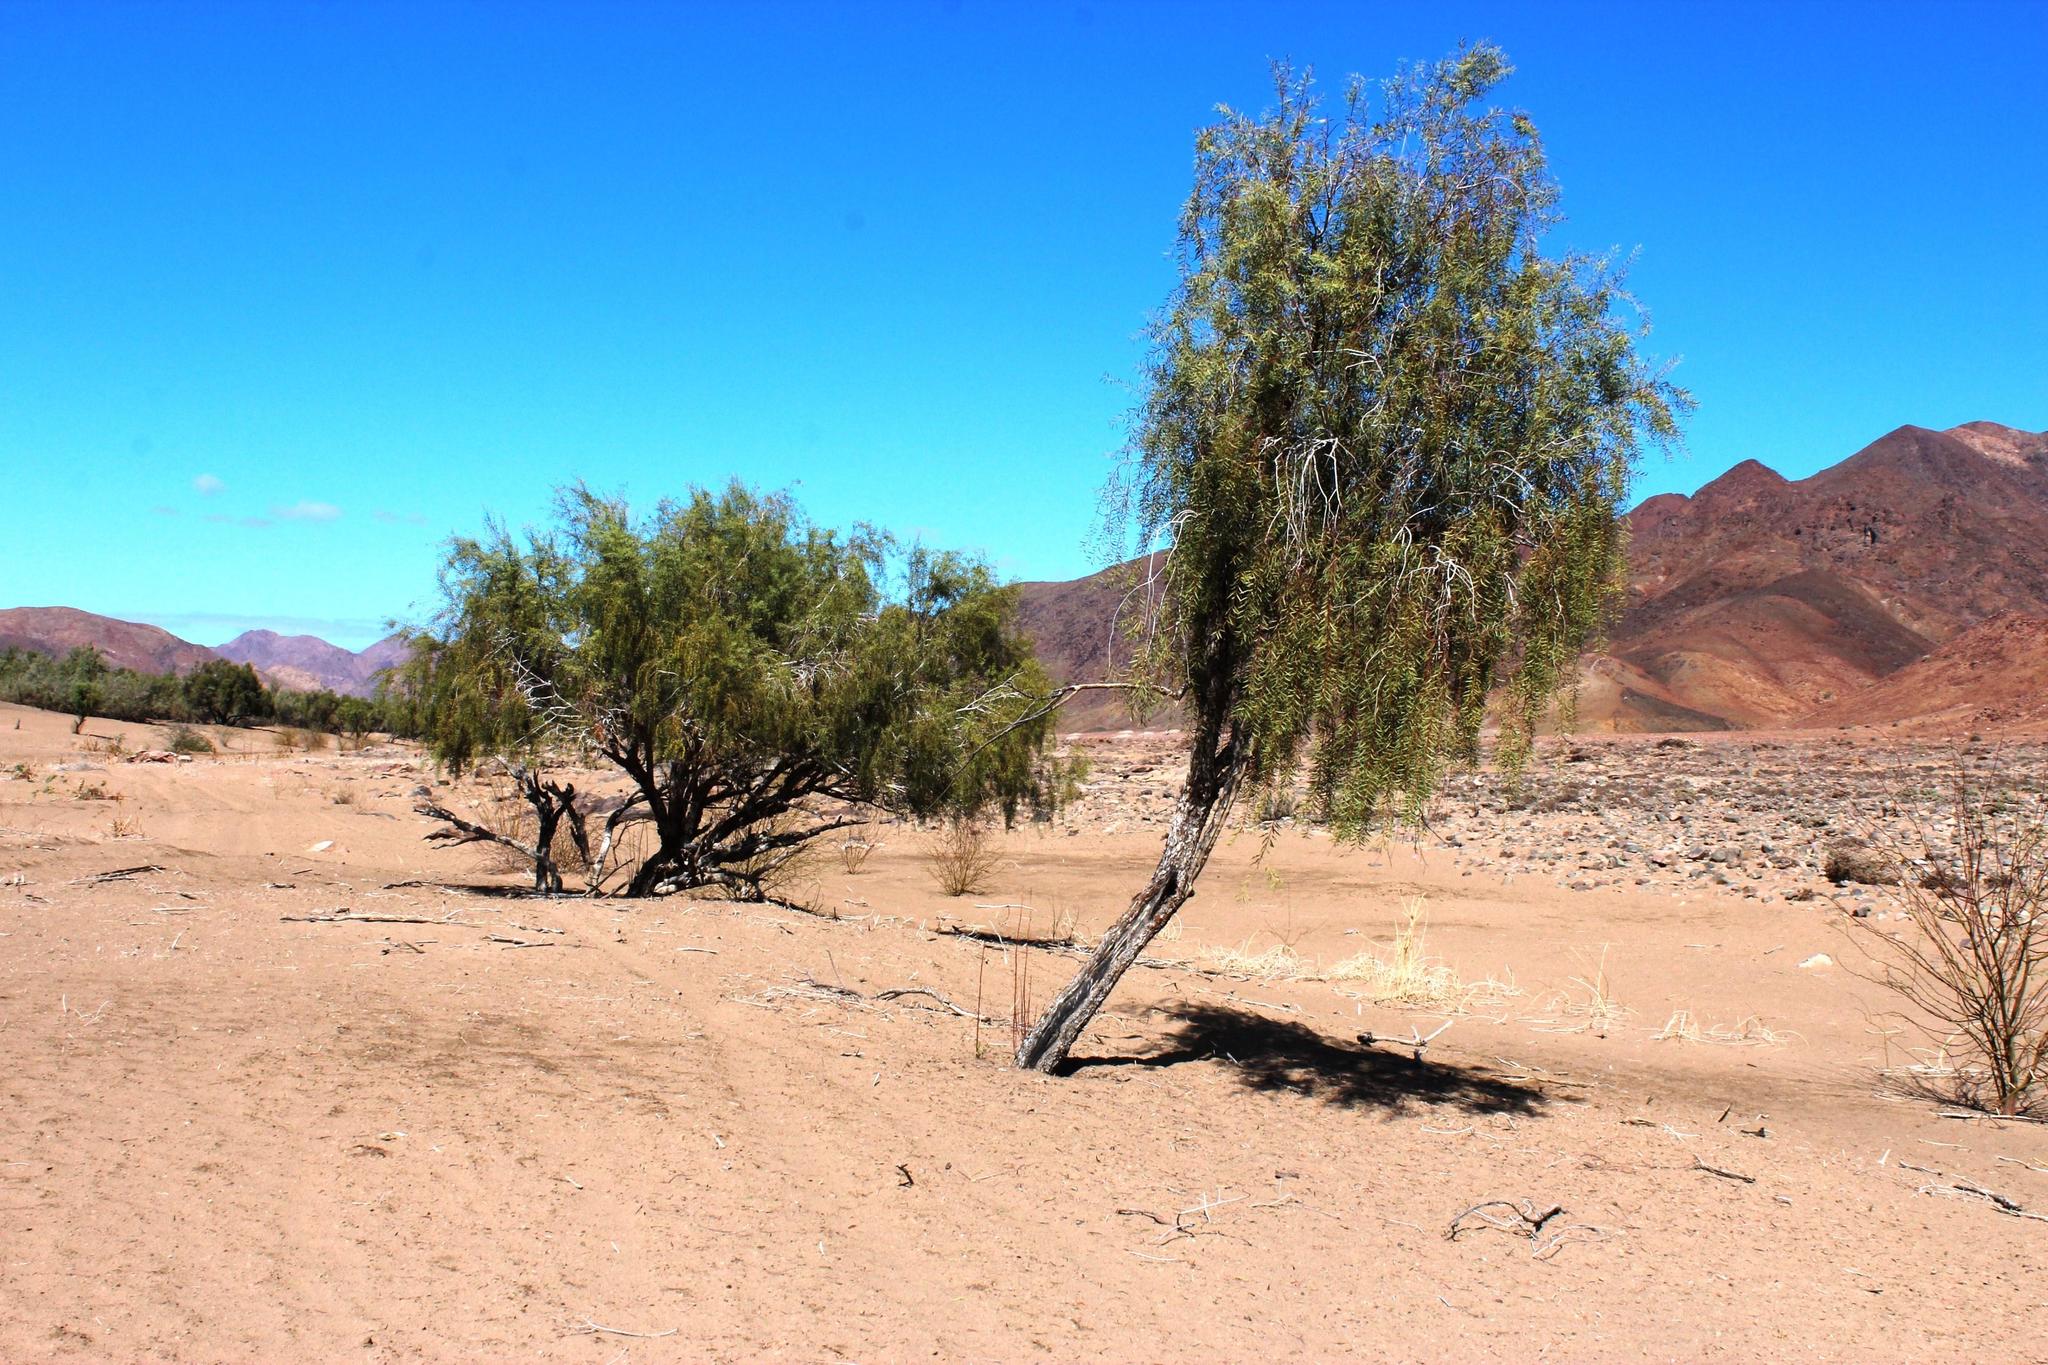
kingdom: Plantae
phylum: Tracheophyta
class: Magnoliopsida
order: Ericales
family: Ebenaceae
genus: Euclea
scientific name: Euclea pseudebenus
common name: Black ebony
